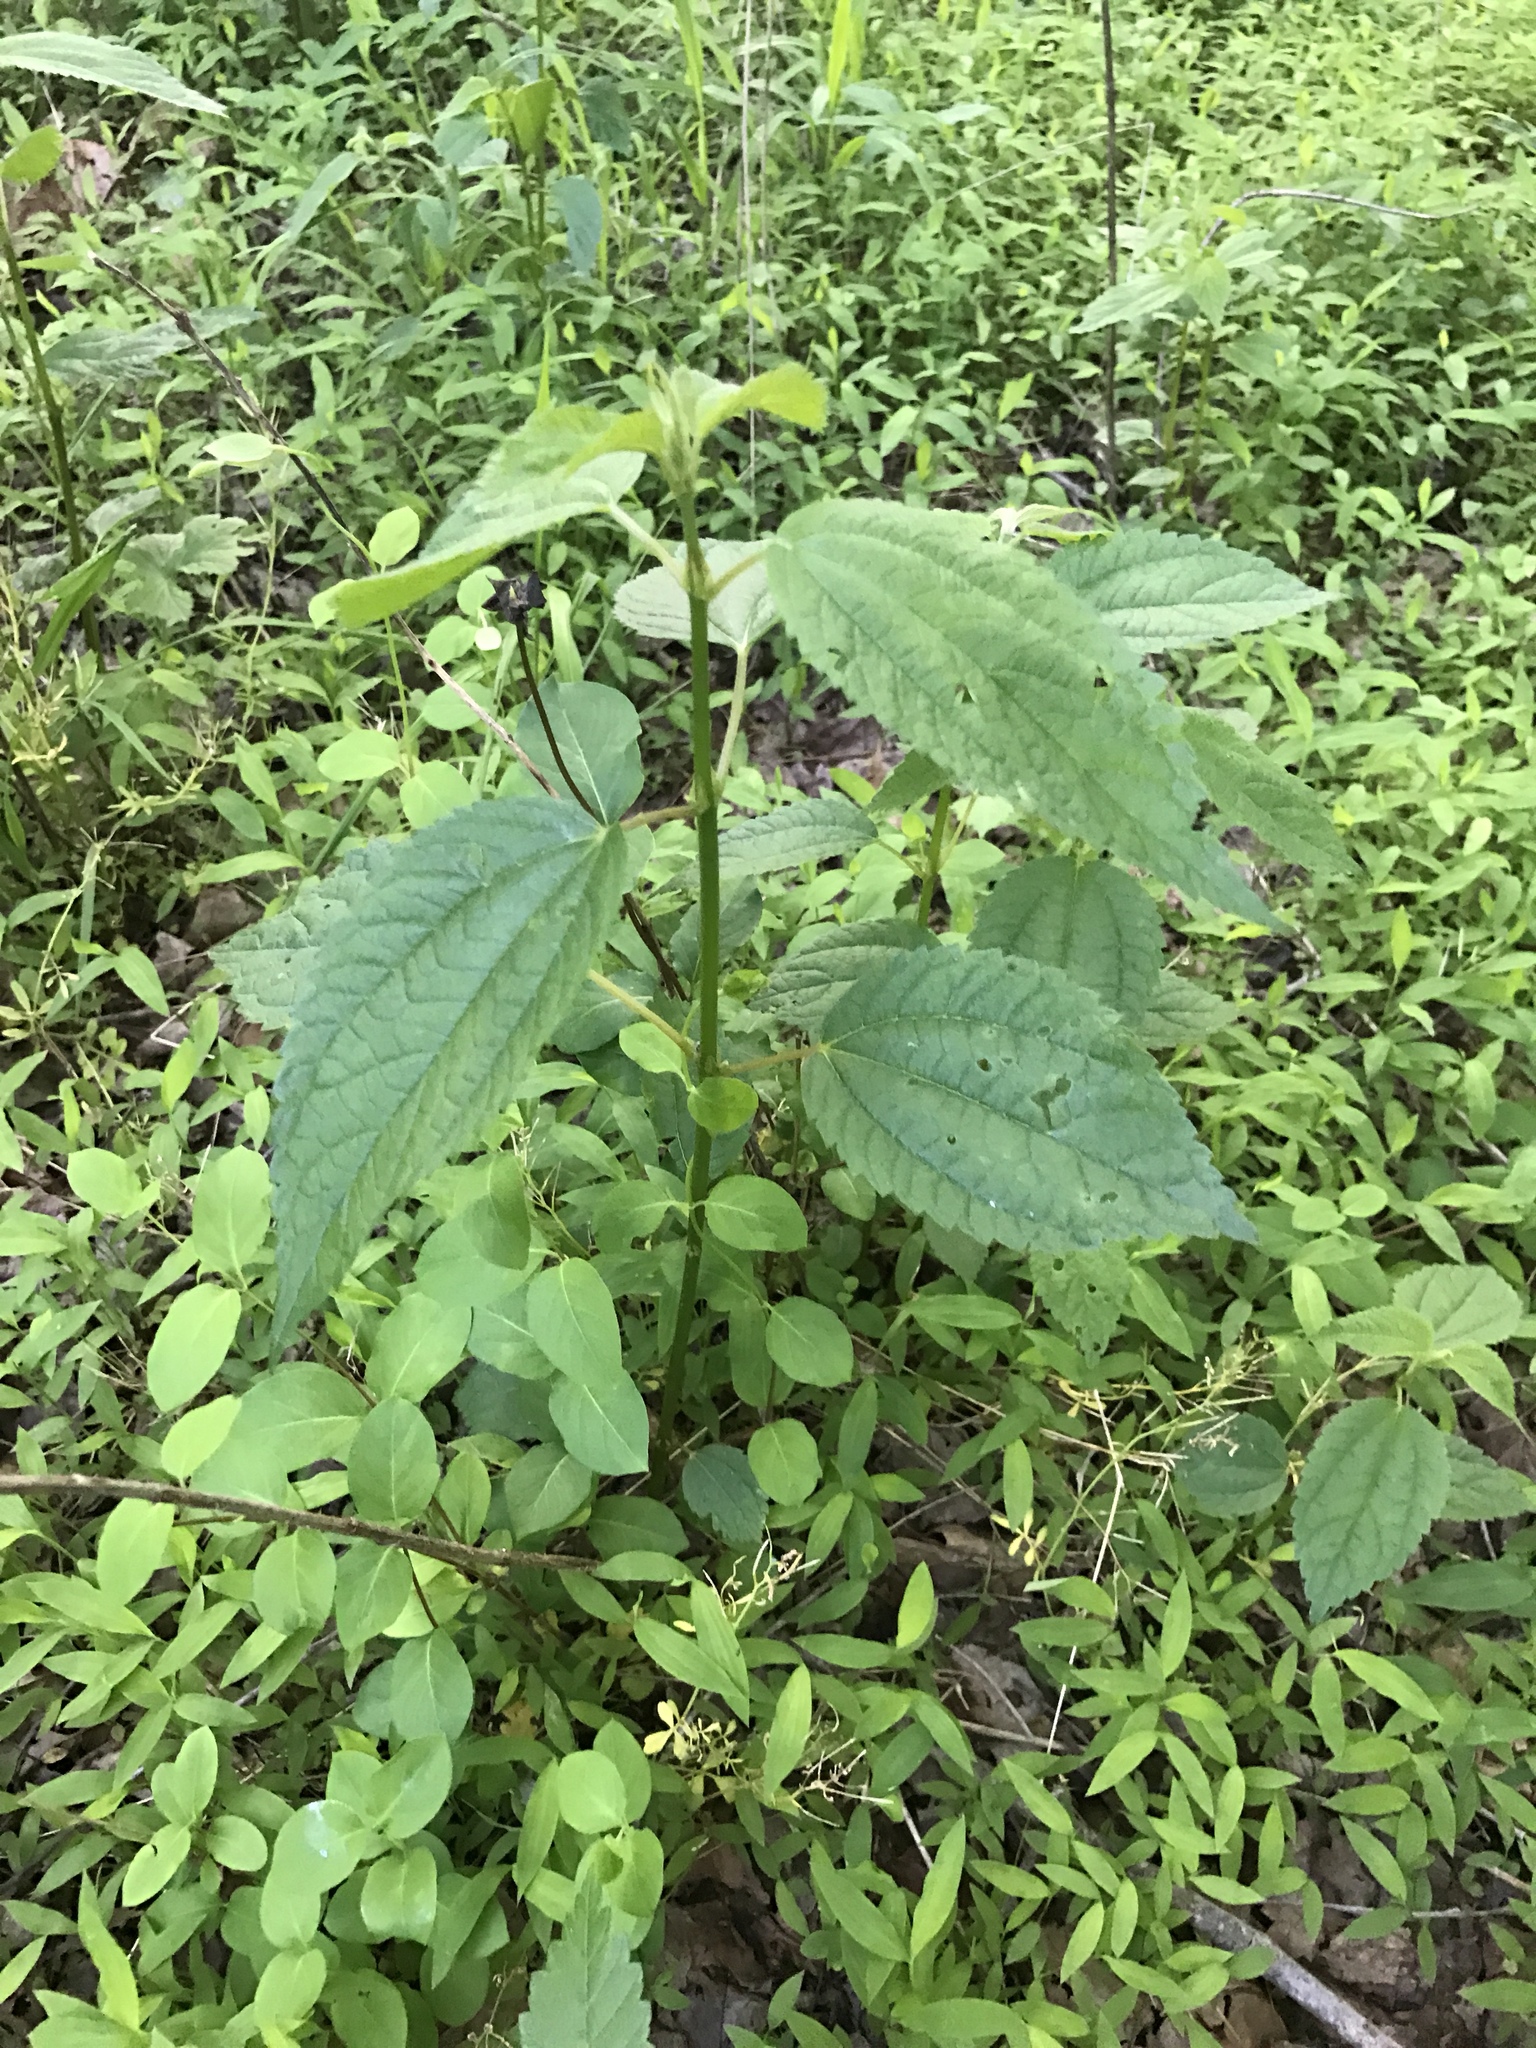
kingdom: Plantae
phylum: Tracheophyta
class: Magnoliopsida
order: Rosales
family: Urticaceae
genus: Boehmeria
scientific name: Boehmeria cylindrica
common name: Bog-hemp
